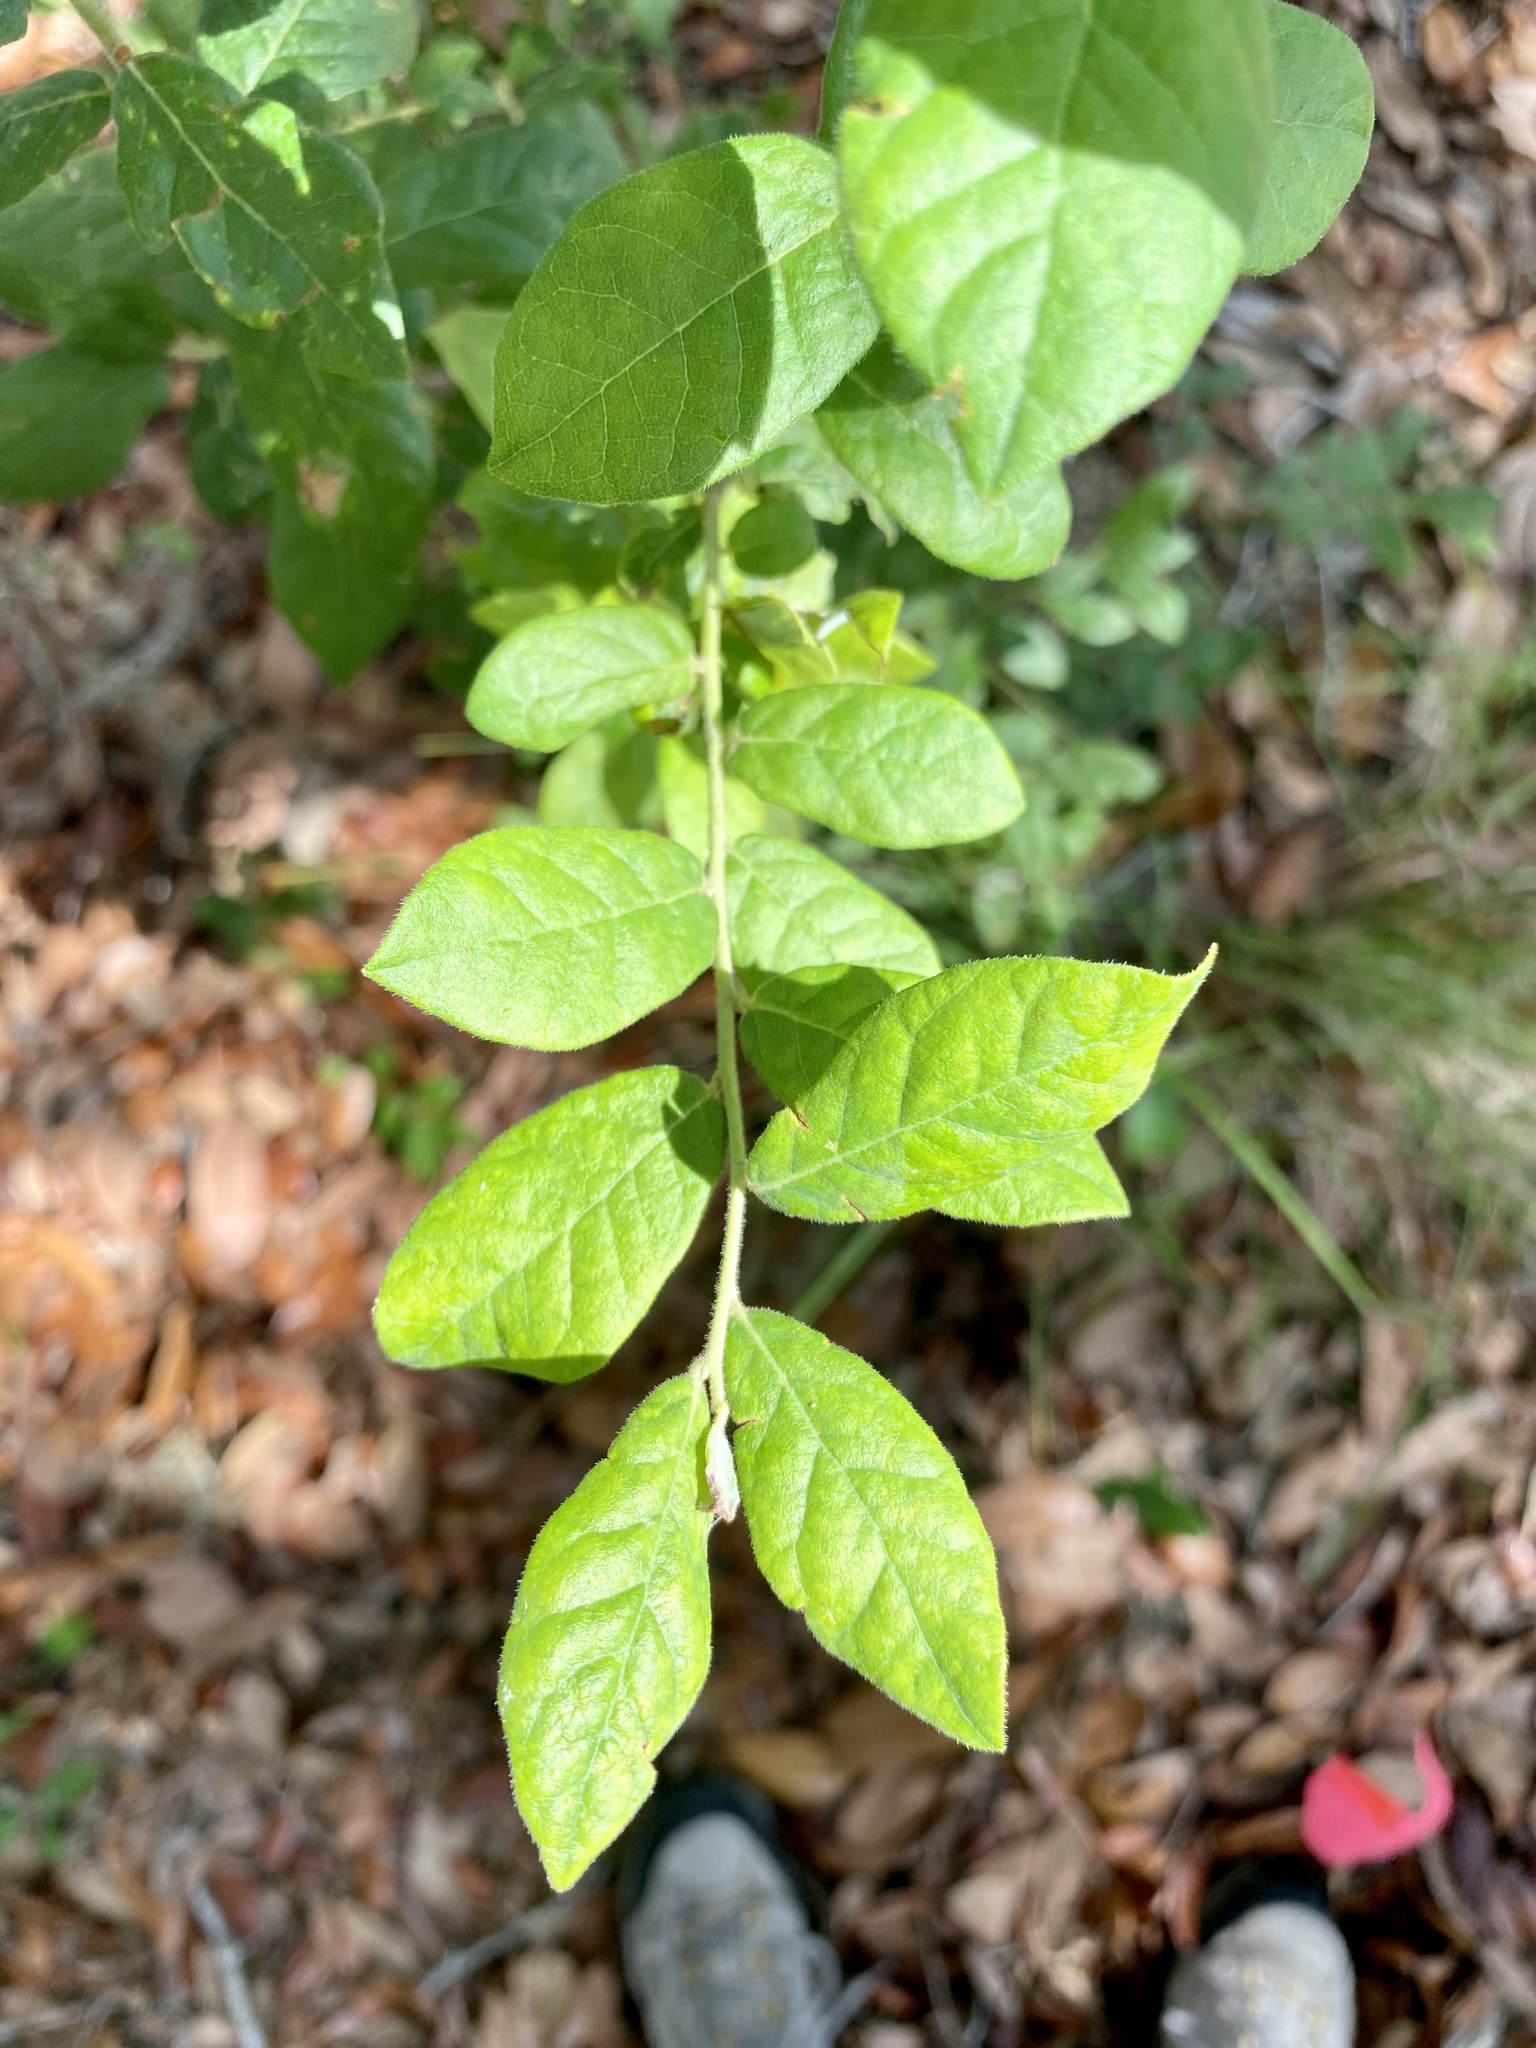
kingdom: Plantae
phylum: Tracheophyta
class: Magnoliopsida
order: Ericales
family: Ericaceae
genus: Vaccinium
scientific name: Vaccinium stamineum
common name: Deerberry
